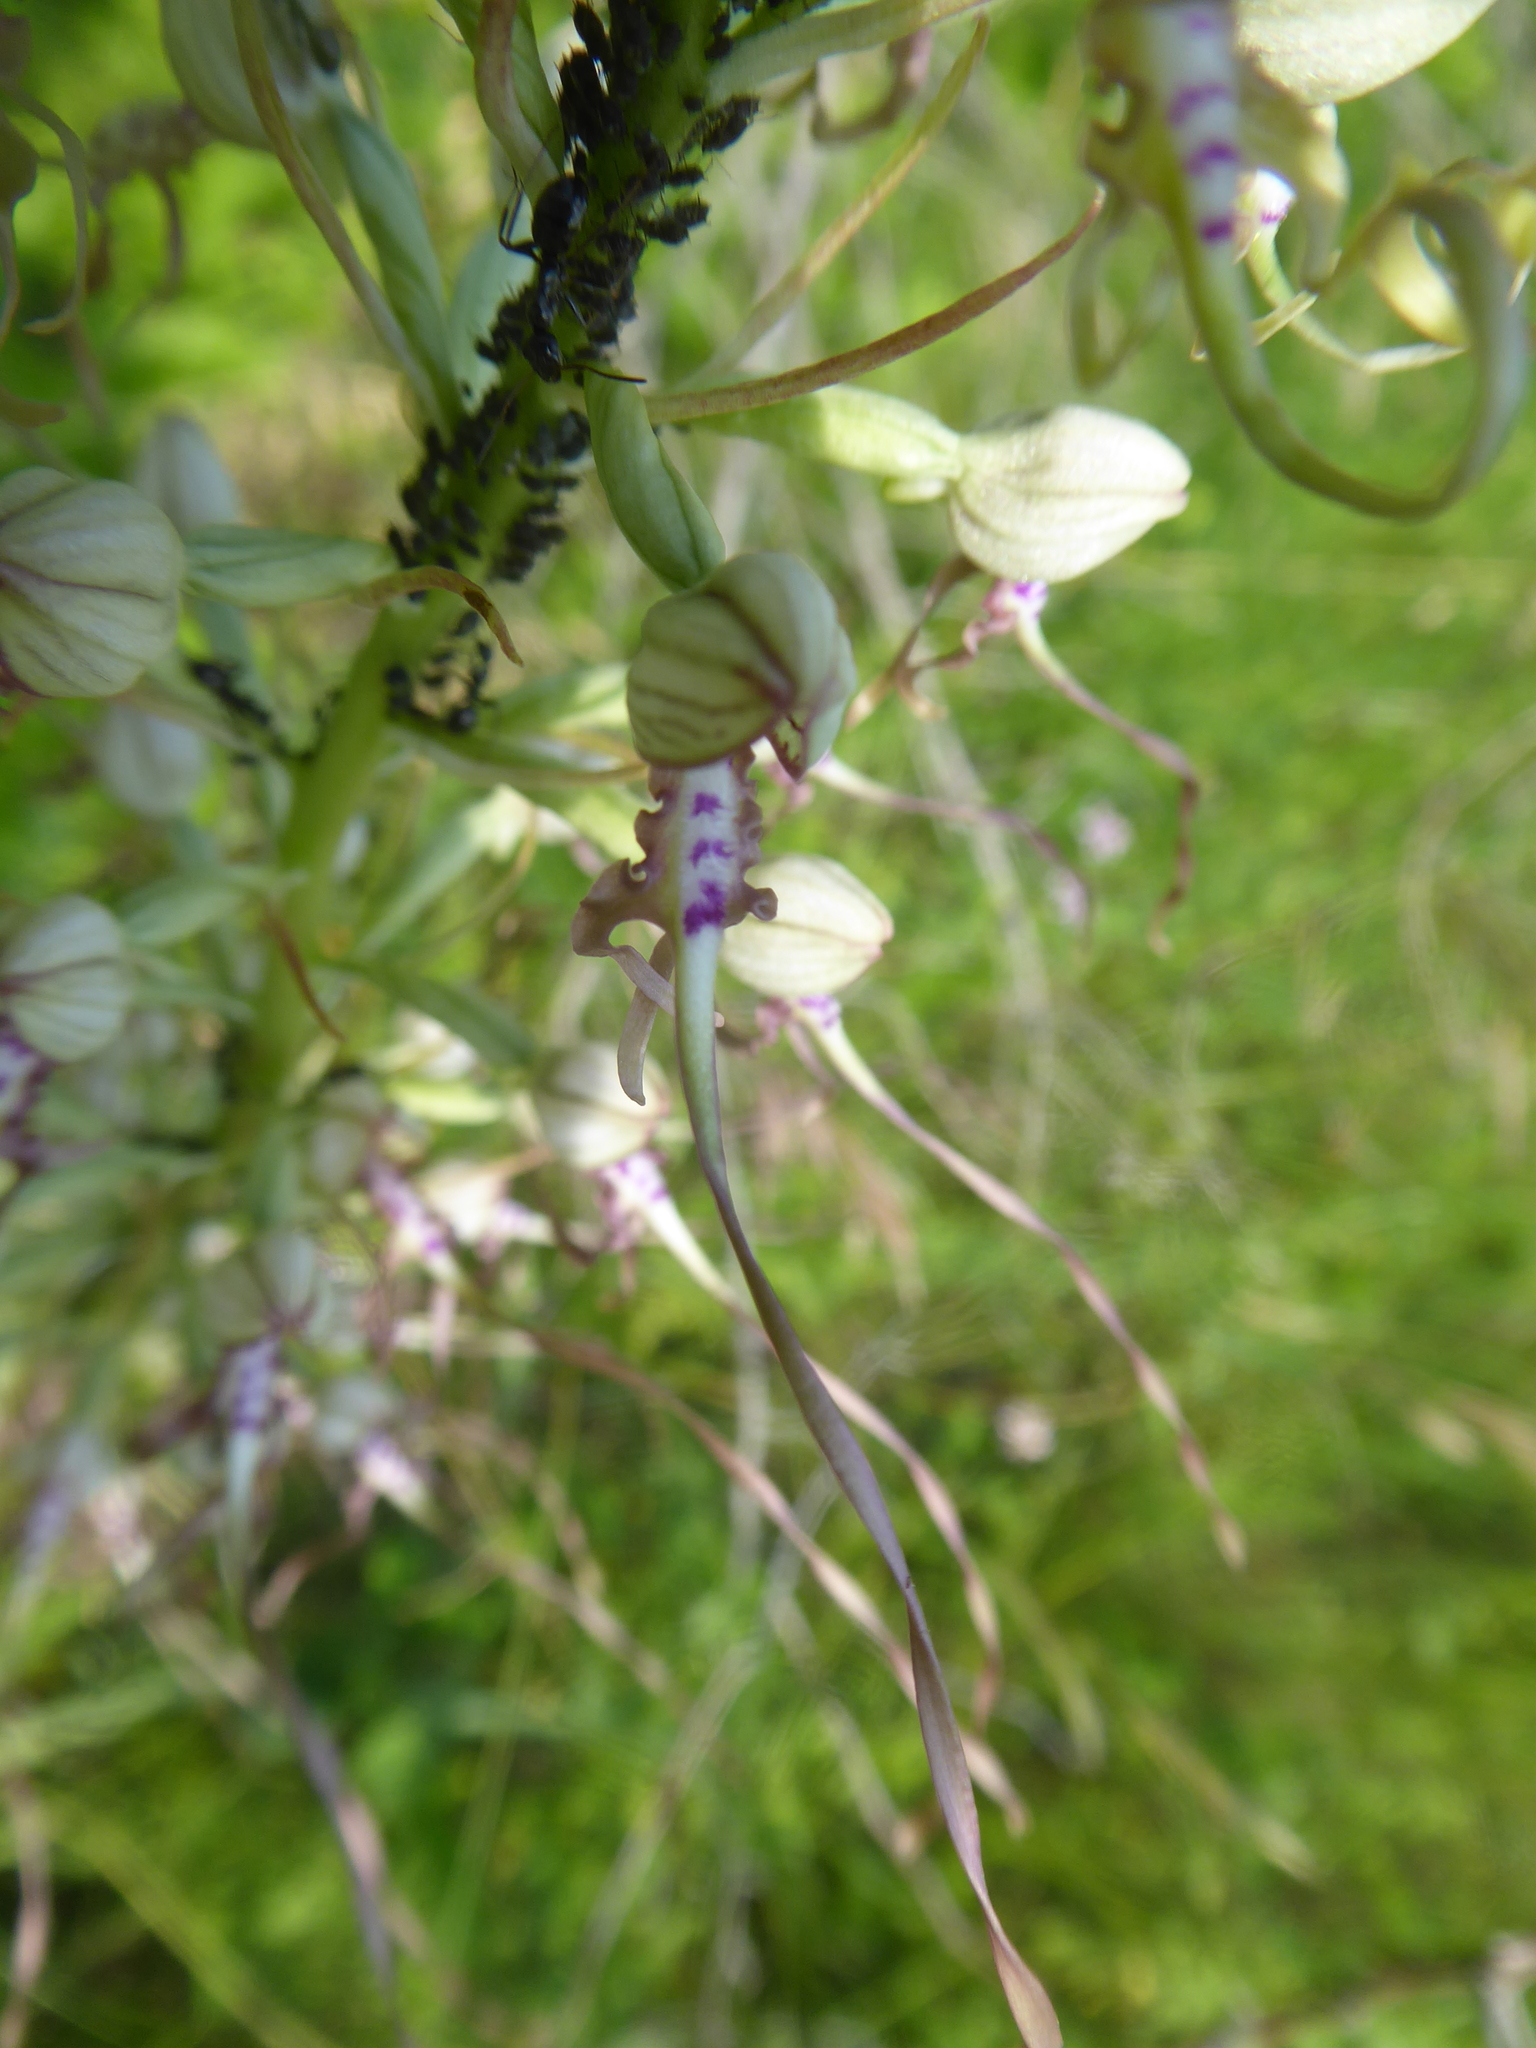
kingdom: Plantae
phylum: Tracheophyta
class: Liliopsida
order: Asparagales
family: Orchidaceae
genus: Himantoglossum
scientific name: Himantoglossum adriaticum
